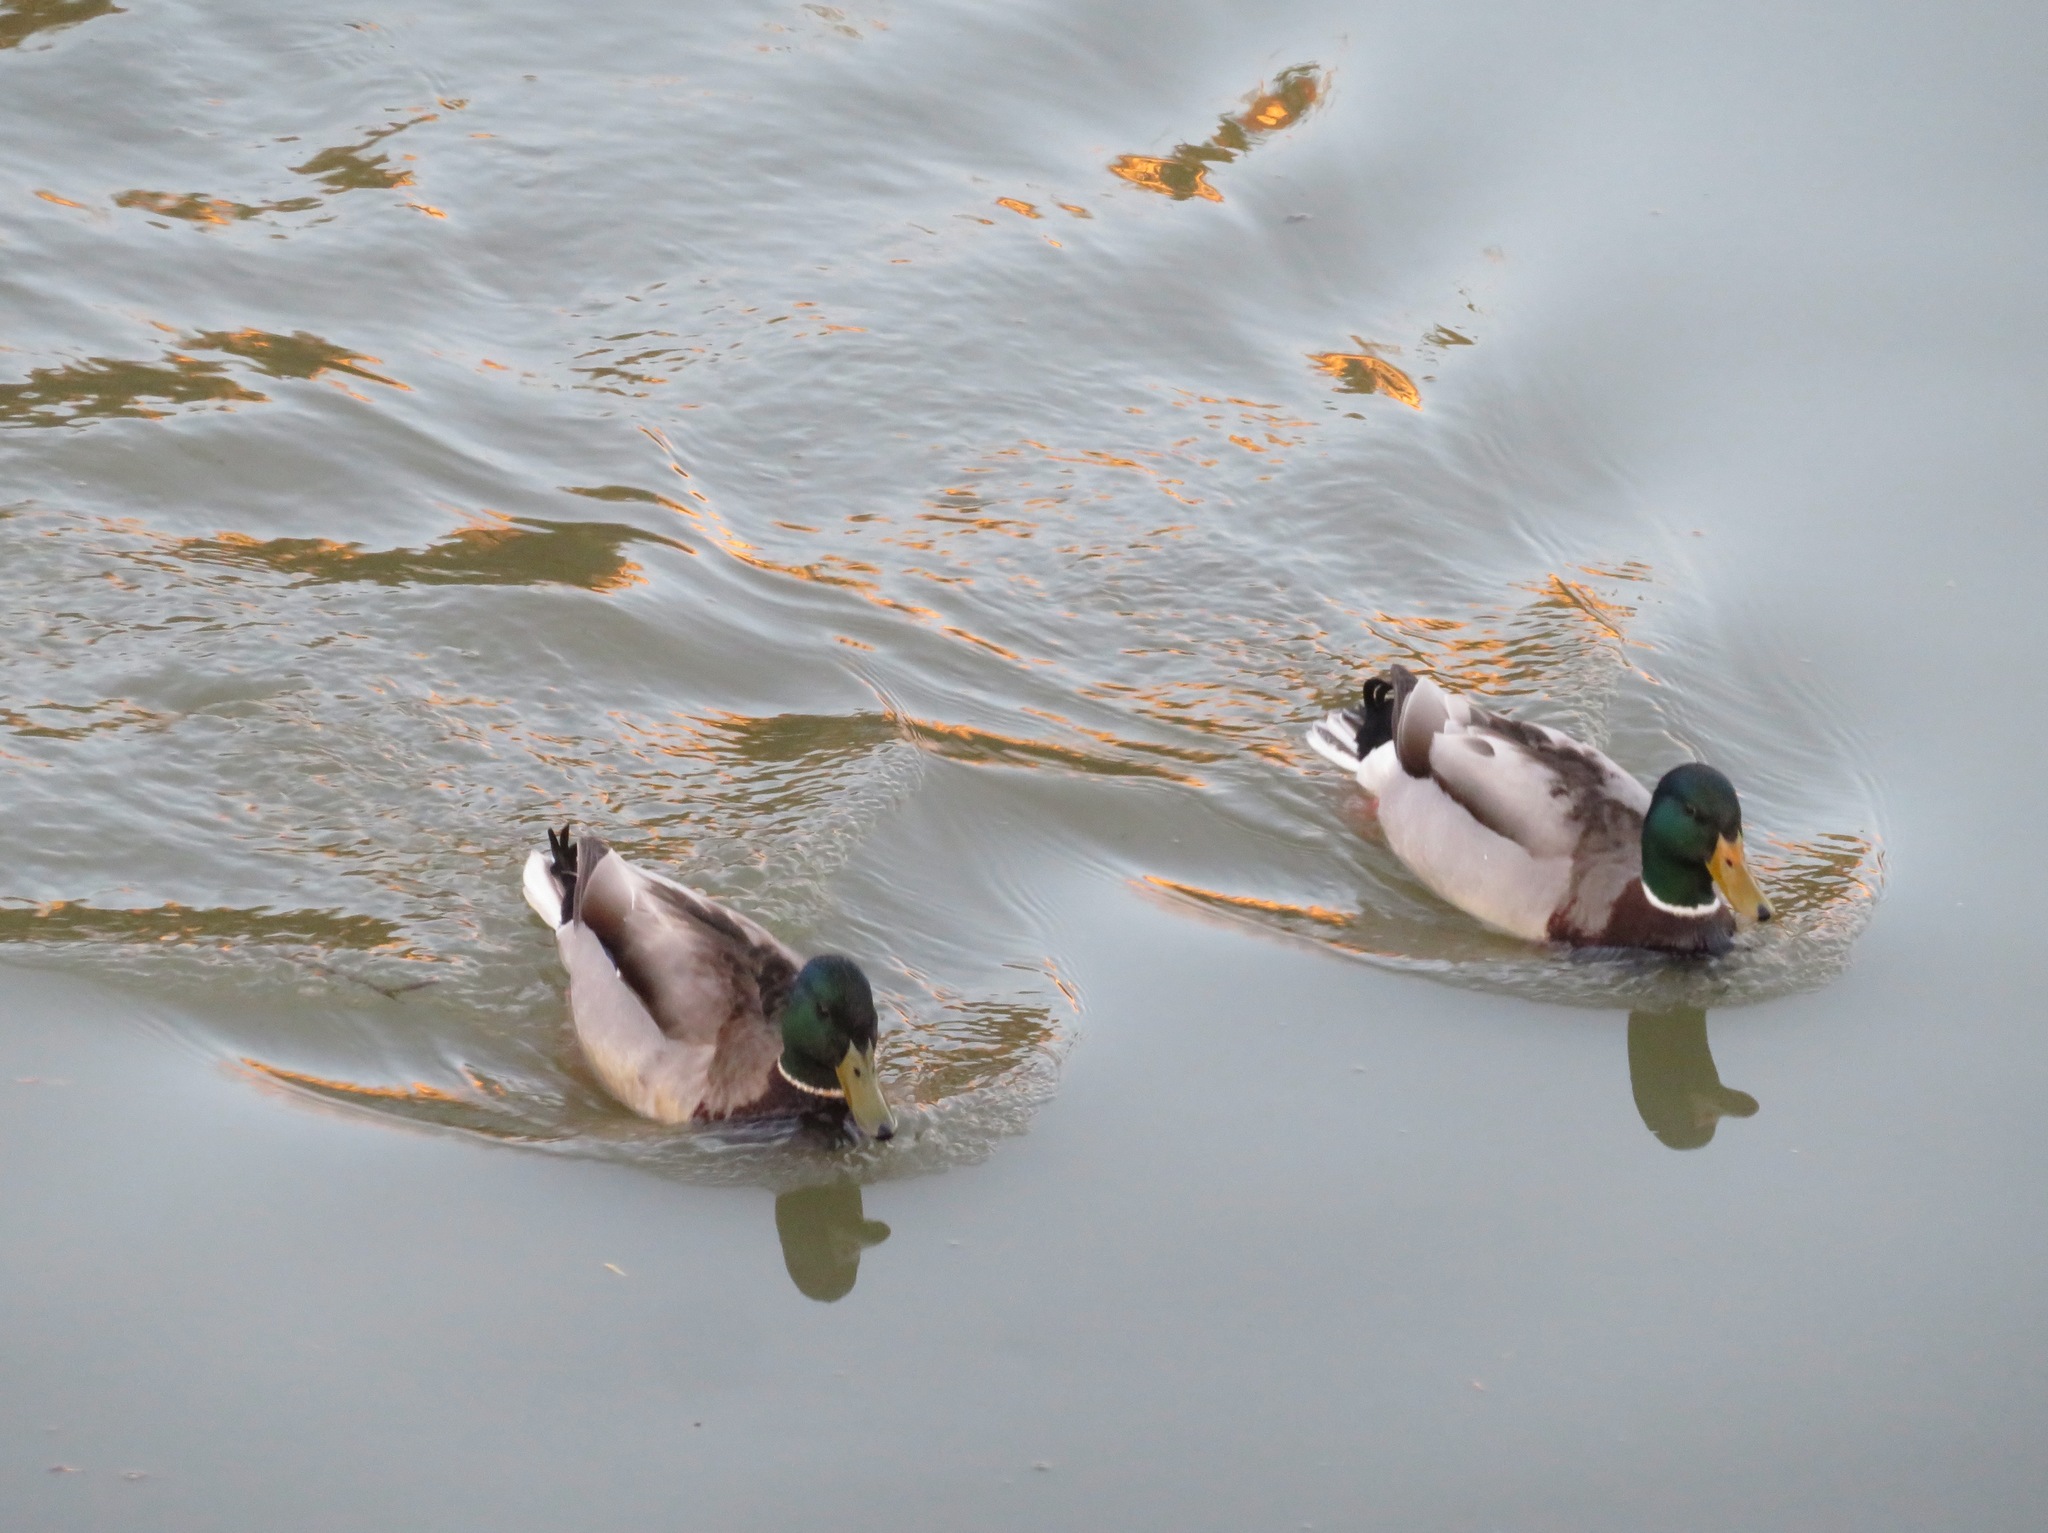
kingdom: Animalia
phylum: Chordata
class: Aves
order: Anseriformes
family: Anatidae
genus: Anas
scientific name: Anas platyrhynchos
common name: Mallard
